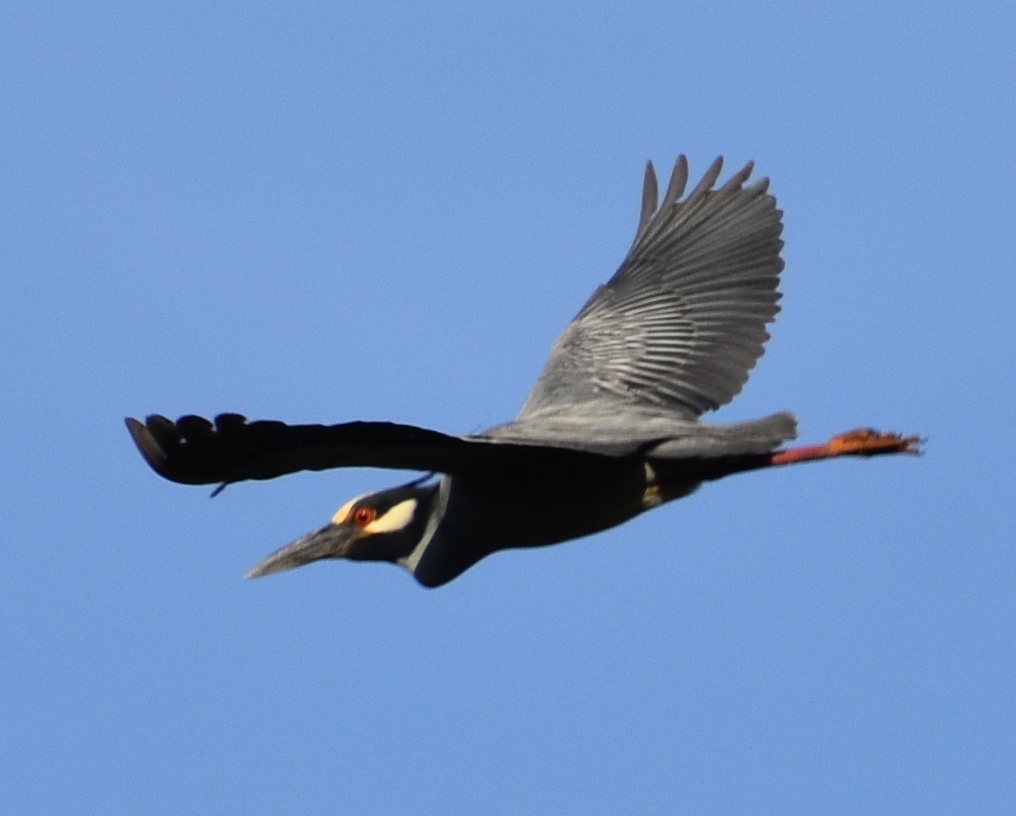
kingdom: Animalia
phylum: Chordata
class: Aves
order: Pelecaniformes
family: Ardeidae
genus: Nyctanassa
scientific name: Nyctanassa violacea
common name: Yellow-crowned night heron
